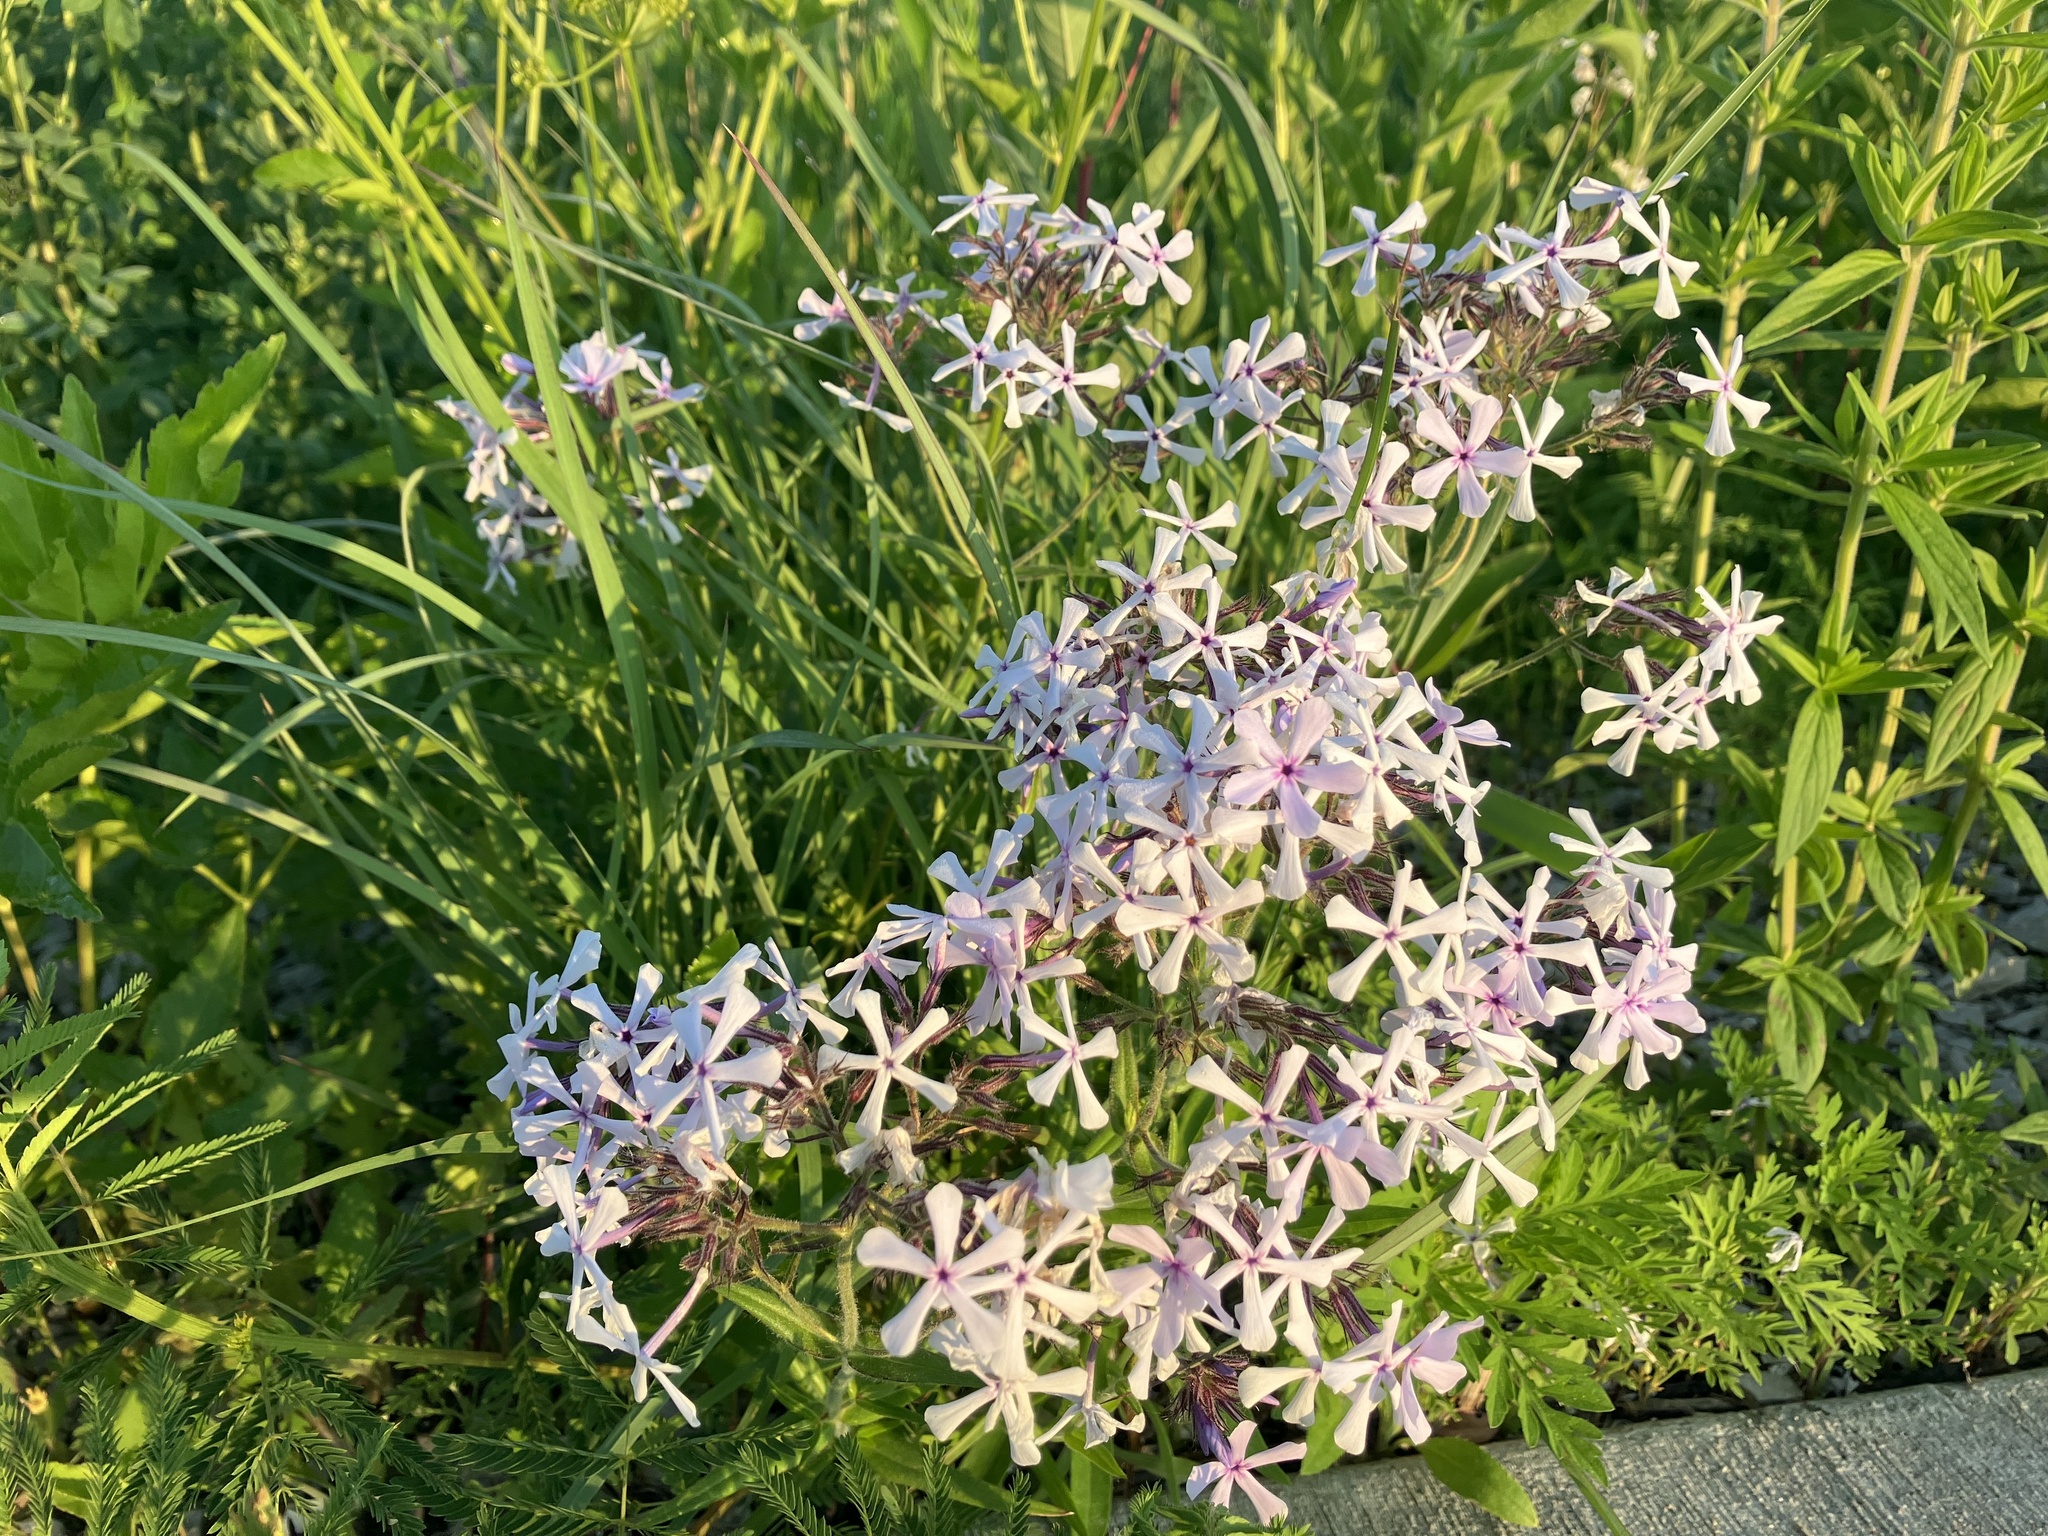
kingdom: Plantae
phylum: Tracheophyta
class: Magnoliopsida
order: Ericales
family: Polemoniaceae
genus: Phlox
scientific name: Phlox pilosa
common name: Prairie phlox
